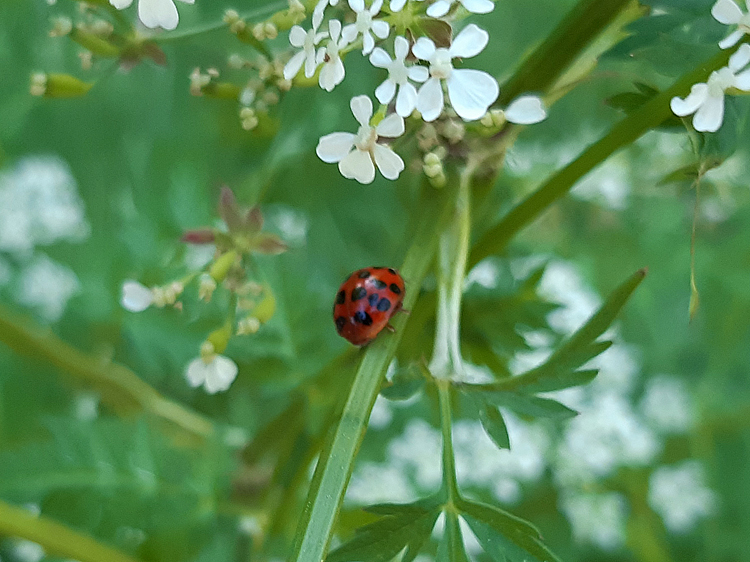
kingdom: Animalia
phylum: Arthropoda
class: Insecta
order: Coleoptera
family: Coccinellidae
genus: Harmonia
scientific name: Harmonia axyridis
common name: Harlequin ladybird
